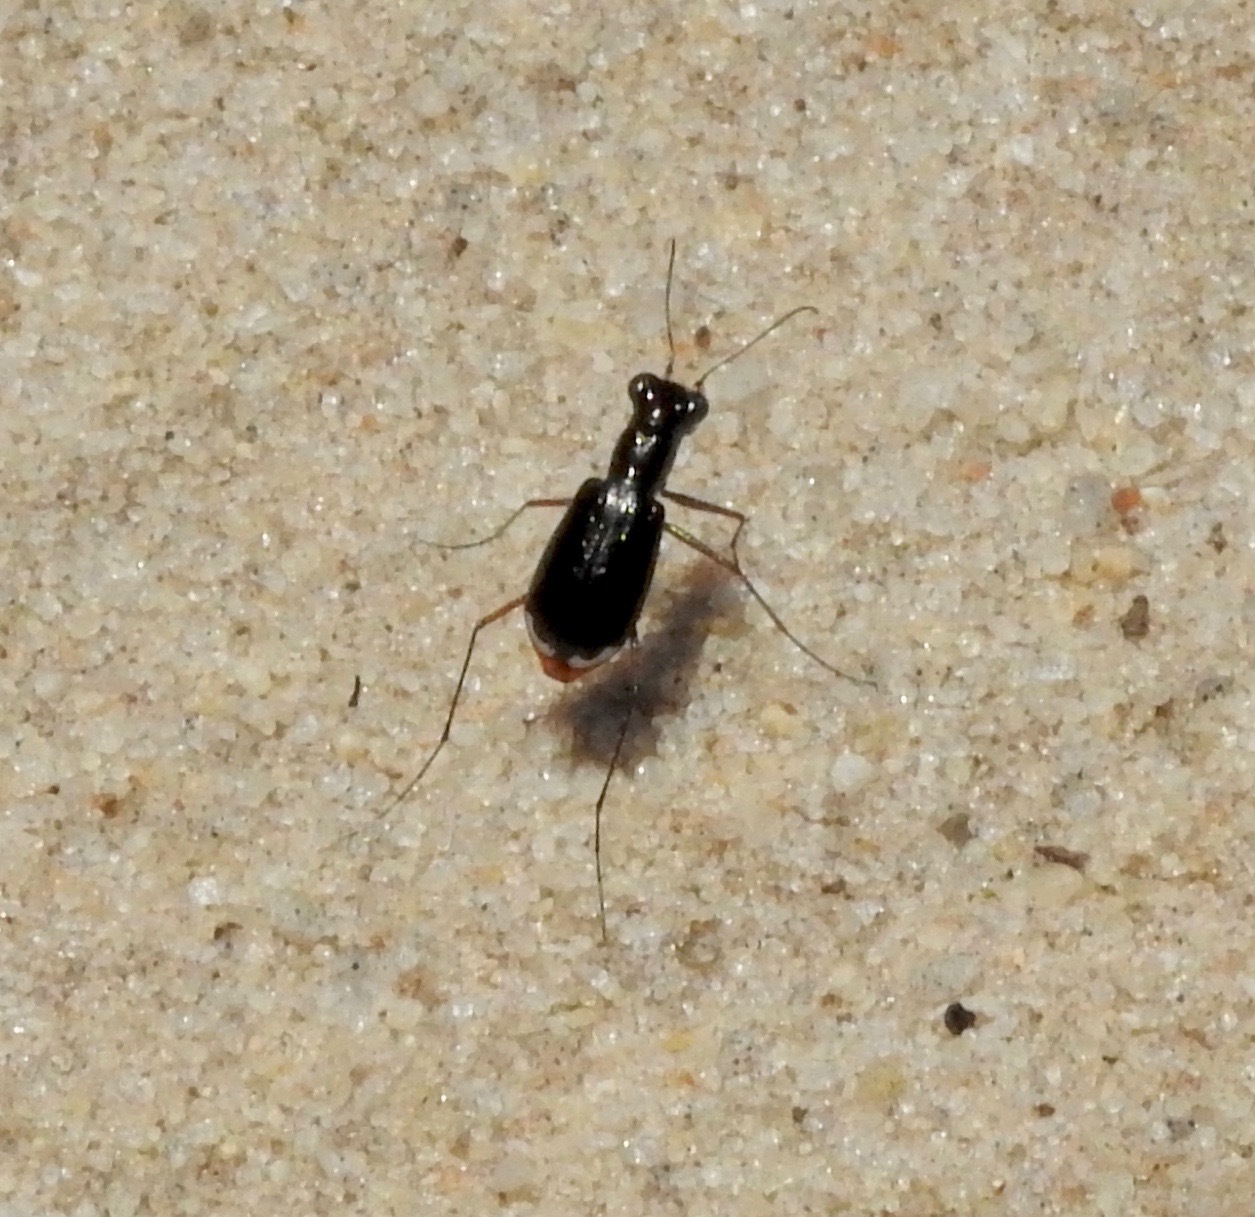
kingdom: Animalia
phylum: Arthropoda
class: Insecta
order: Coleoptera
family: Carabidae
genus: Cicindela
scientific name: Cicindela abdominalis
